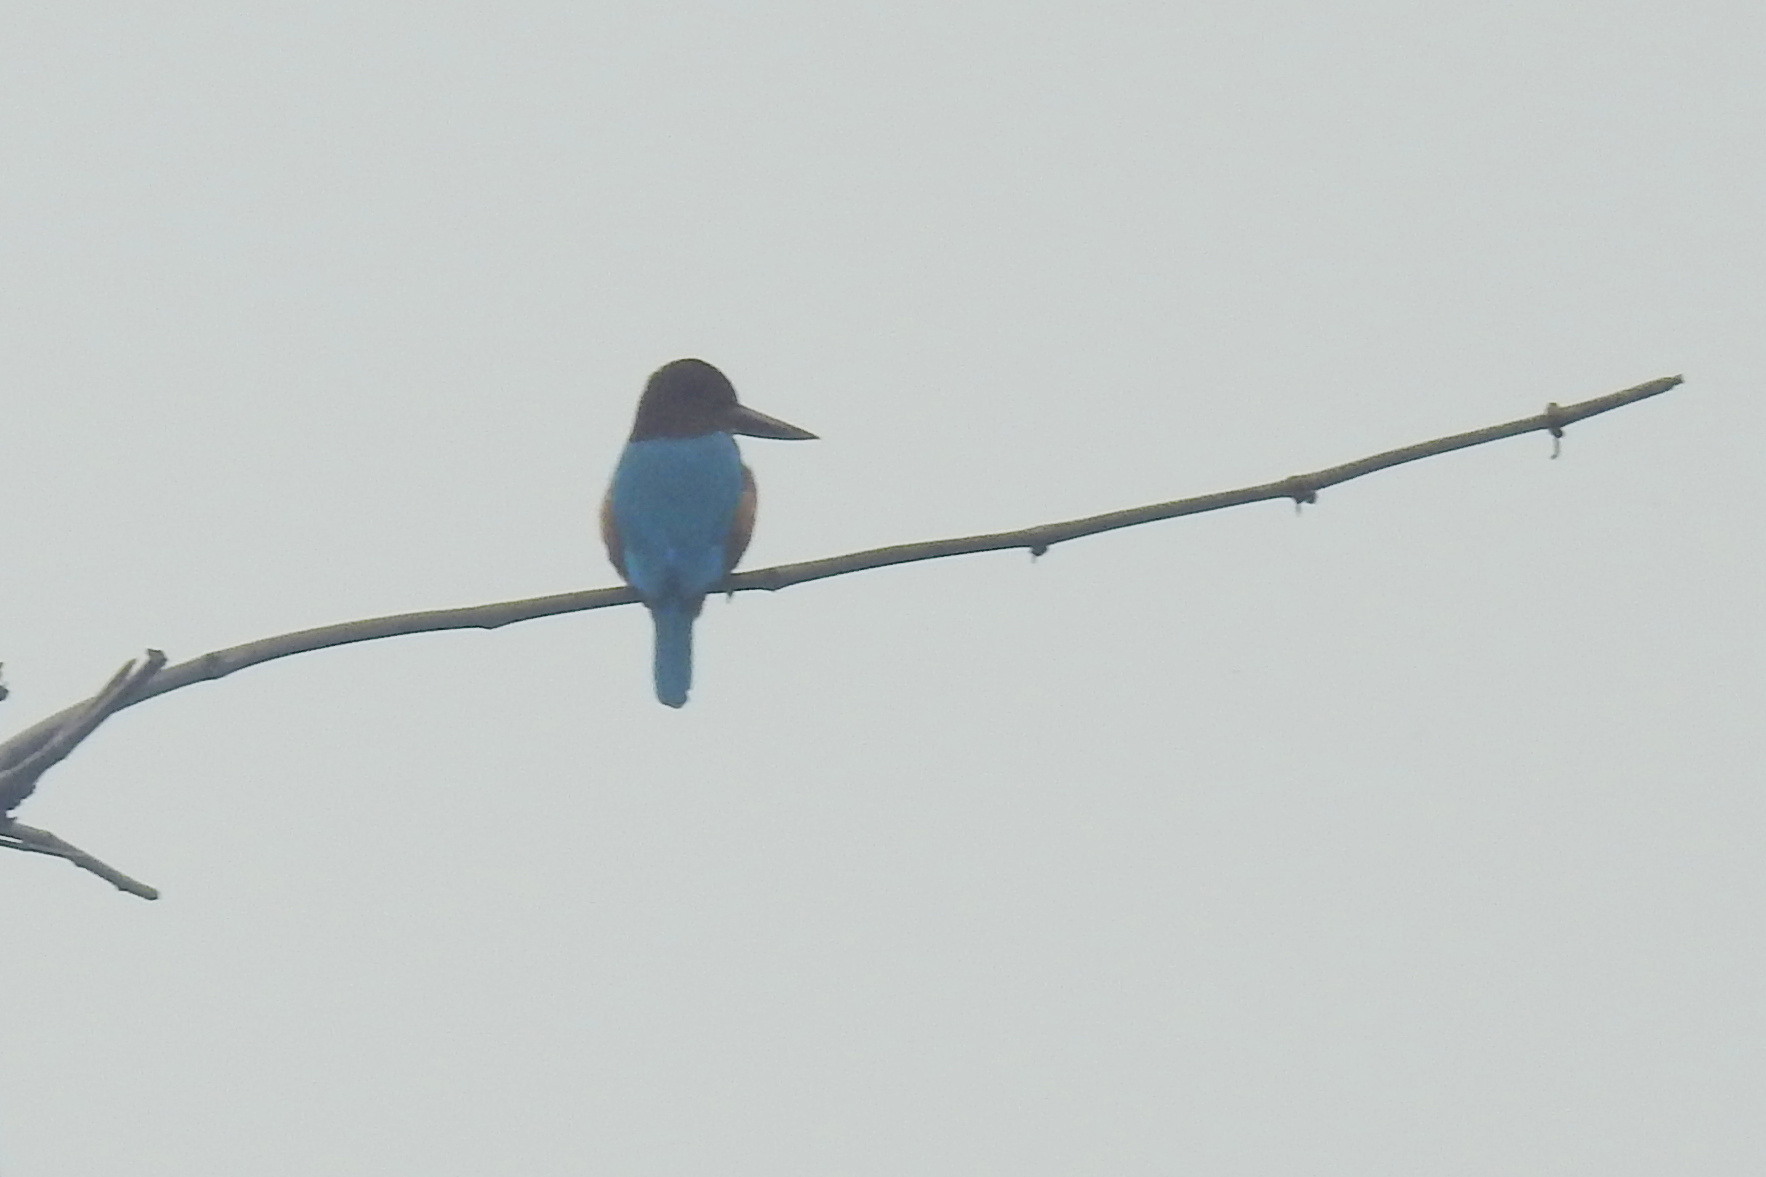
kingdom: Animalia
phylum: Chordata
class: Aves
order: Coraciiformes
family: Alcedinidae
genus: Halcyon
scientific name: Halcyon smyrnensis
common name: White-throated kingfisher
